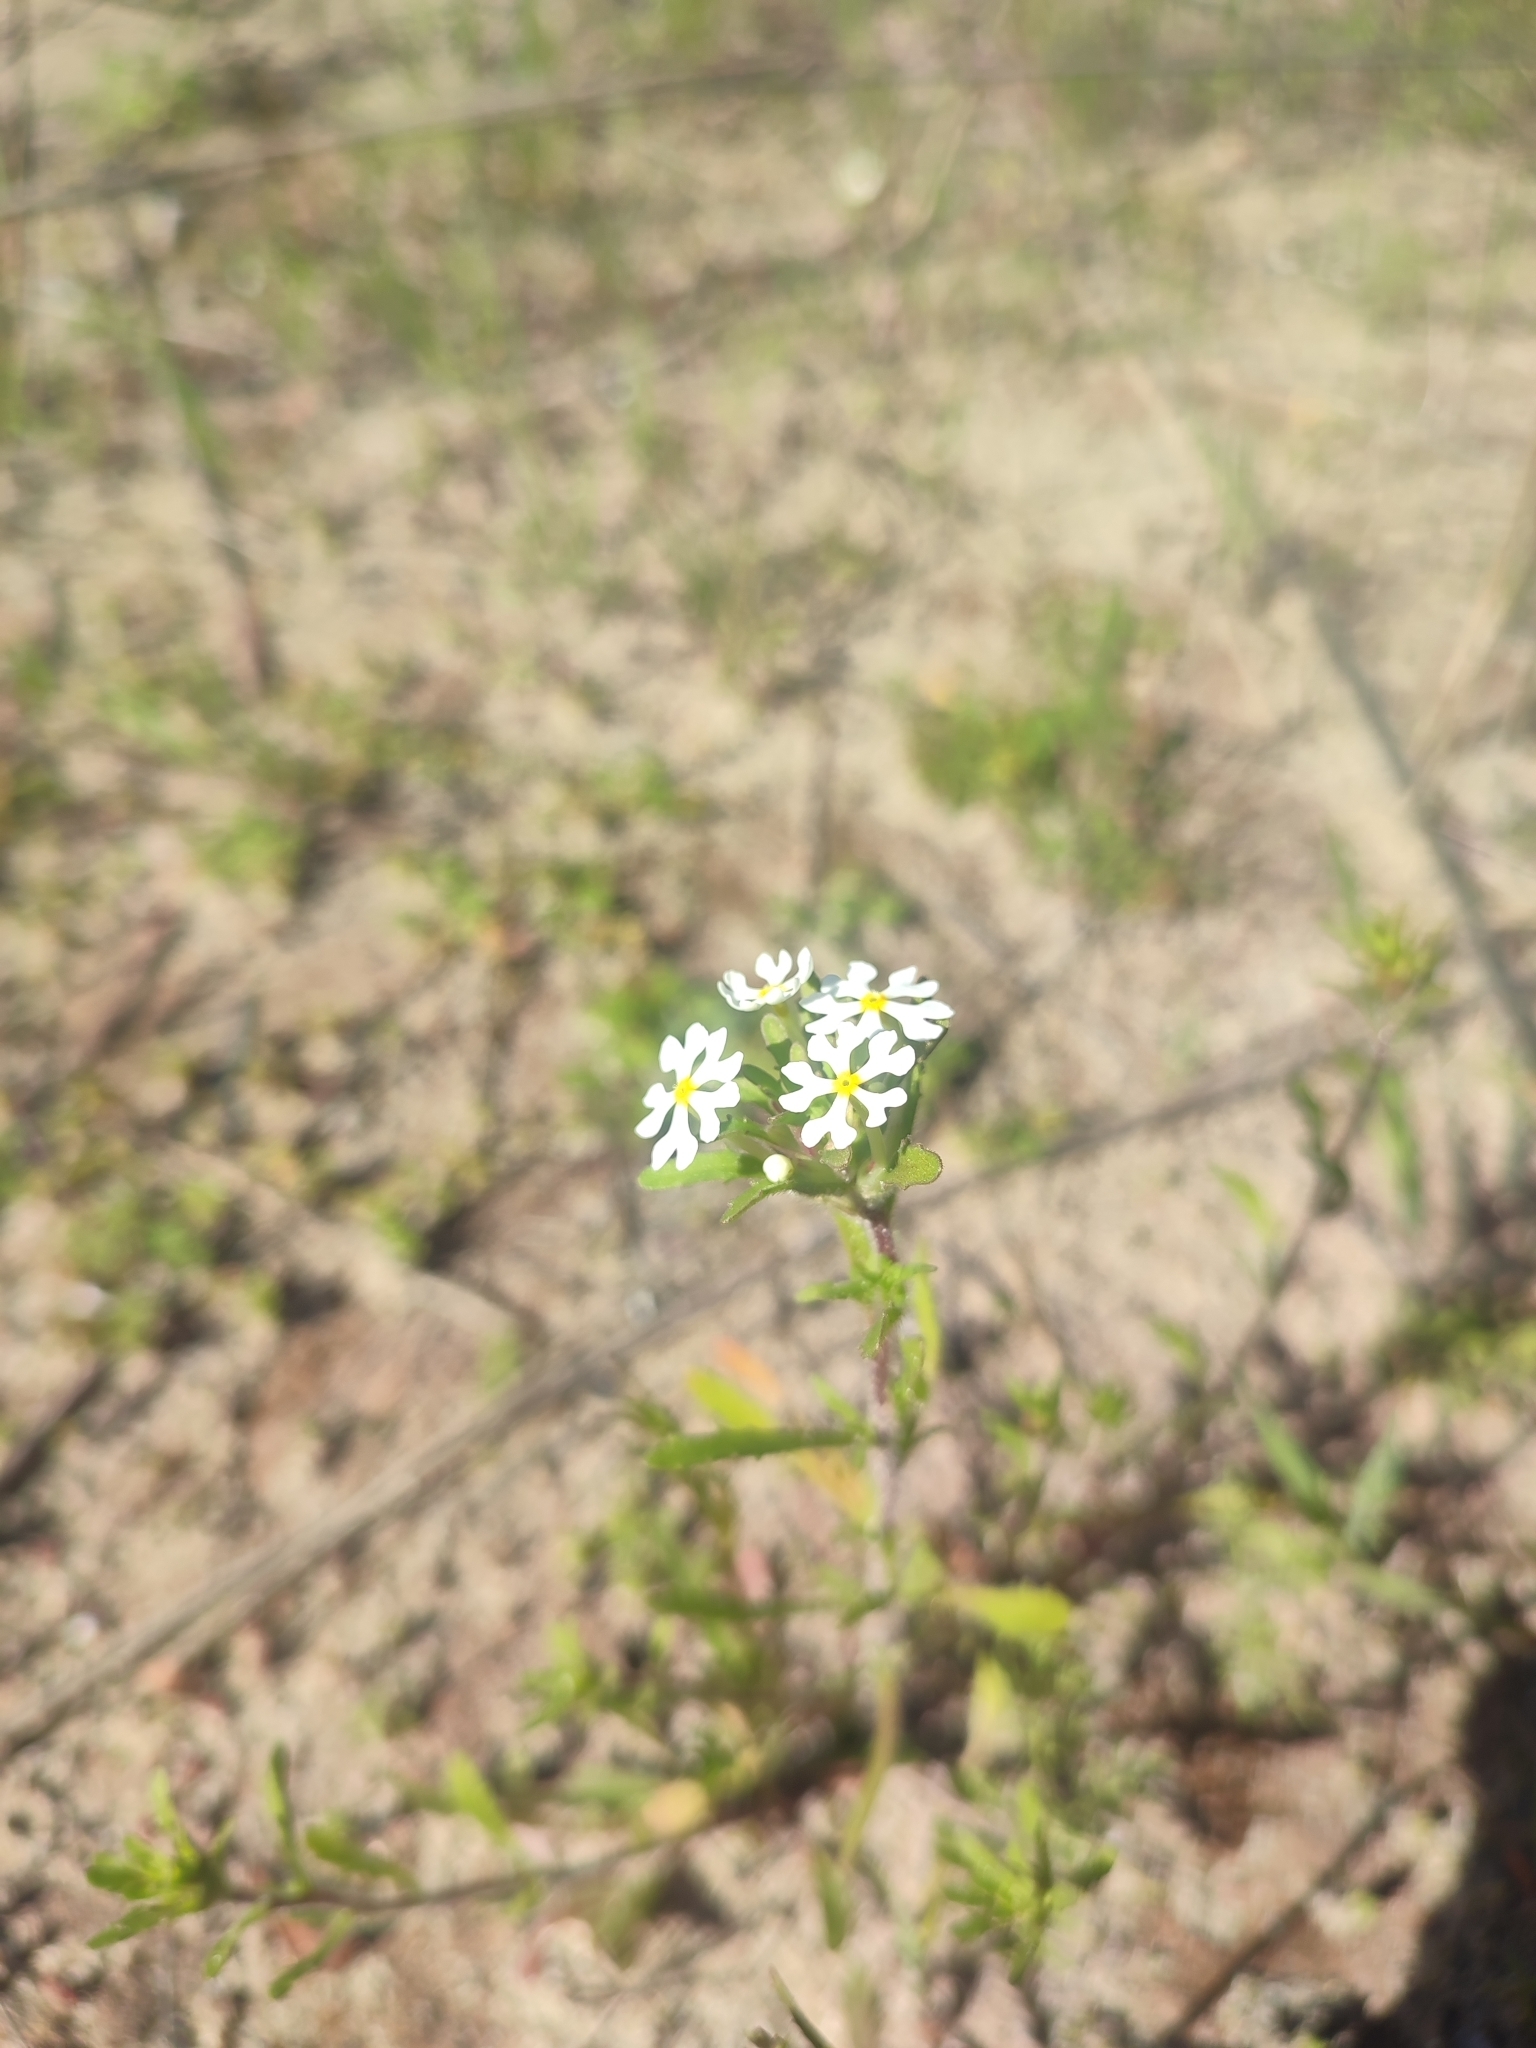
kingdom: Plantae
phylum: Tracheophyta
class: Magnoliopsida
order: Lamiales
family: Scrophulariaceae
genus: Zaluzianskya
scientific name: Zaluzianskya villosa
